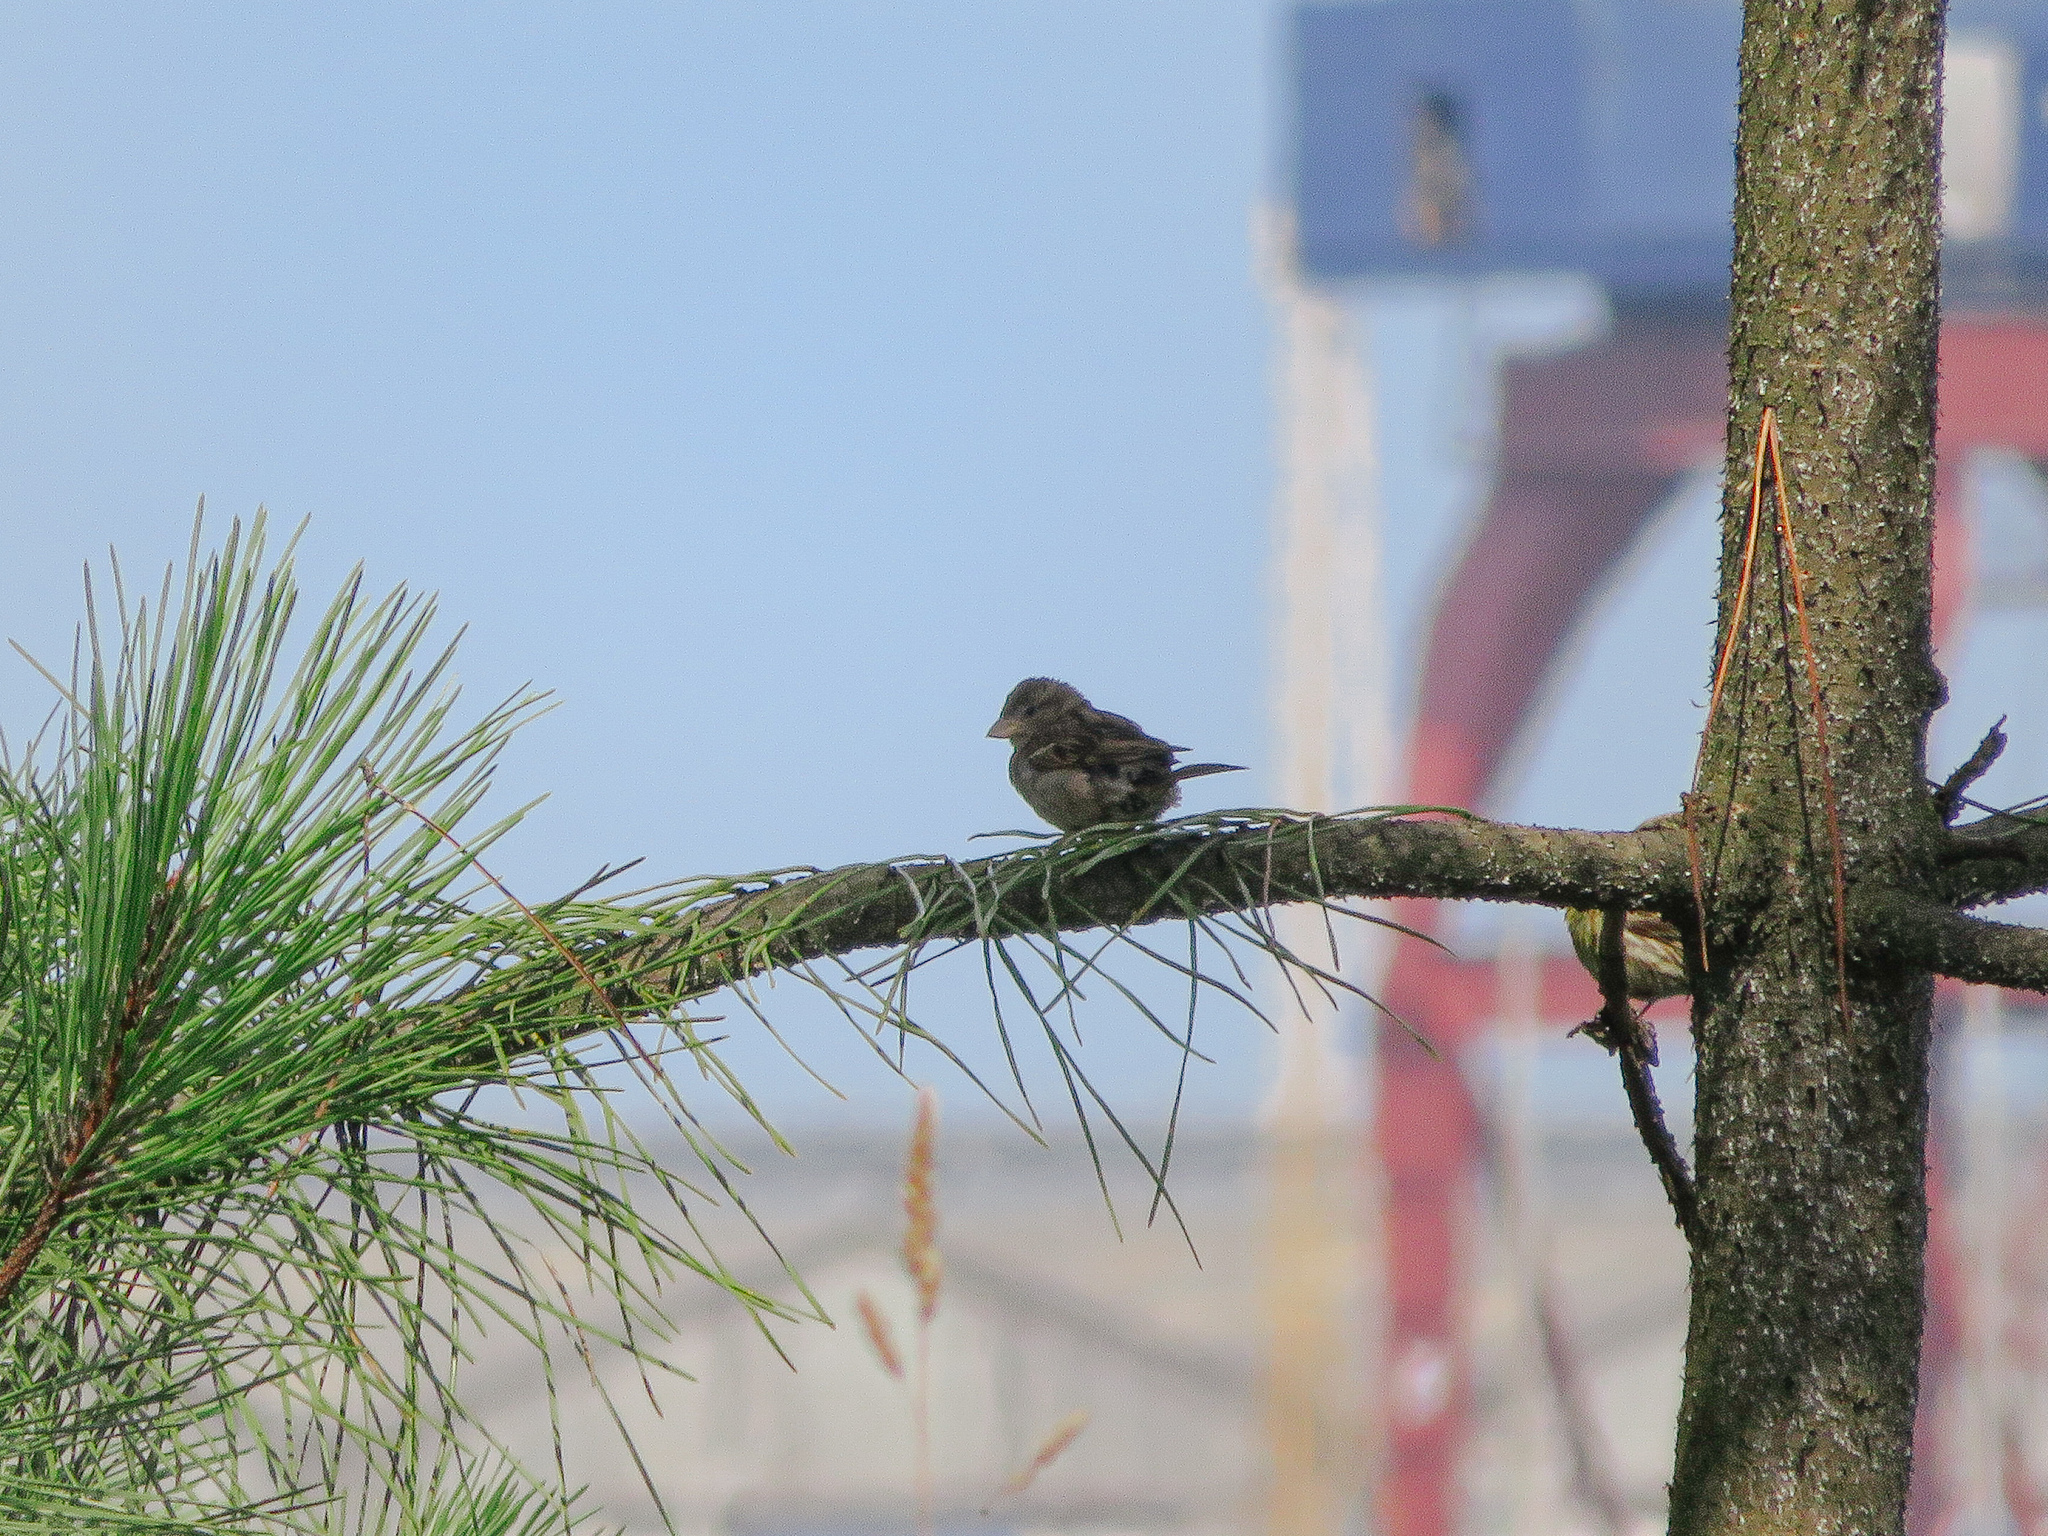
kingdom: Animalia
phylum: Chordata
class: Aves
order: Passeriformes
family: Passeridae
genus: Passer
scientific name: Passer domesticus
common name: House sparrow
